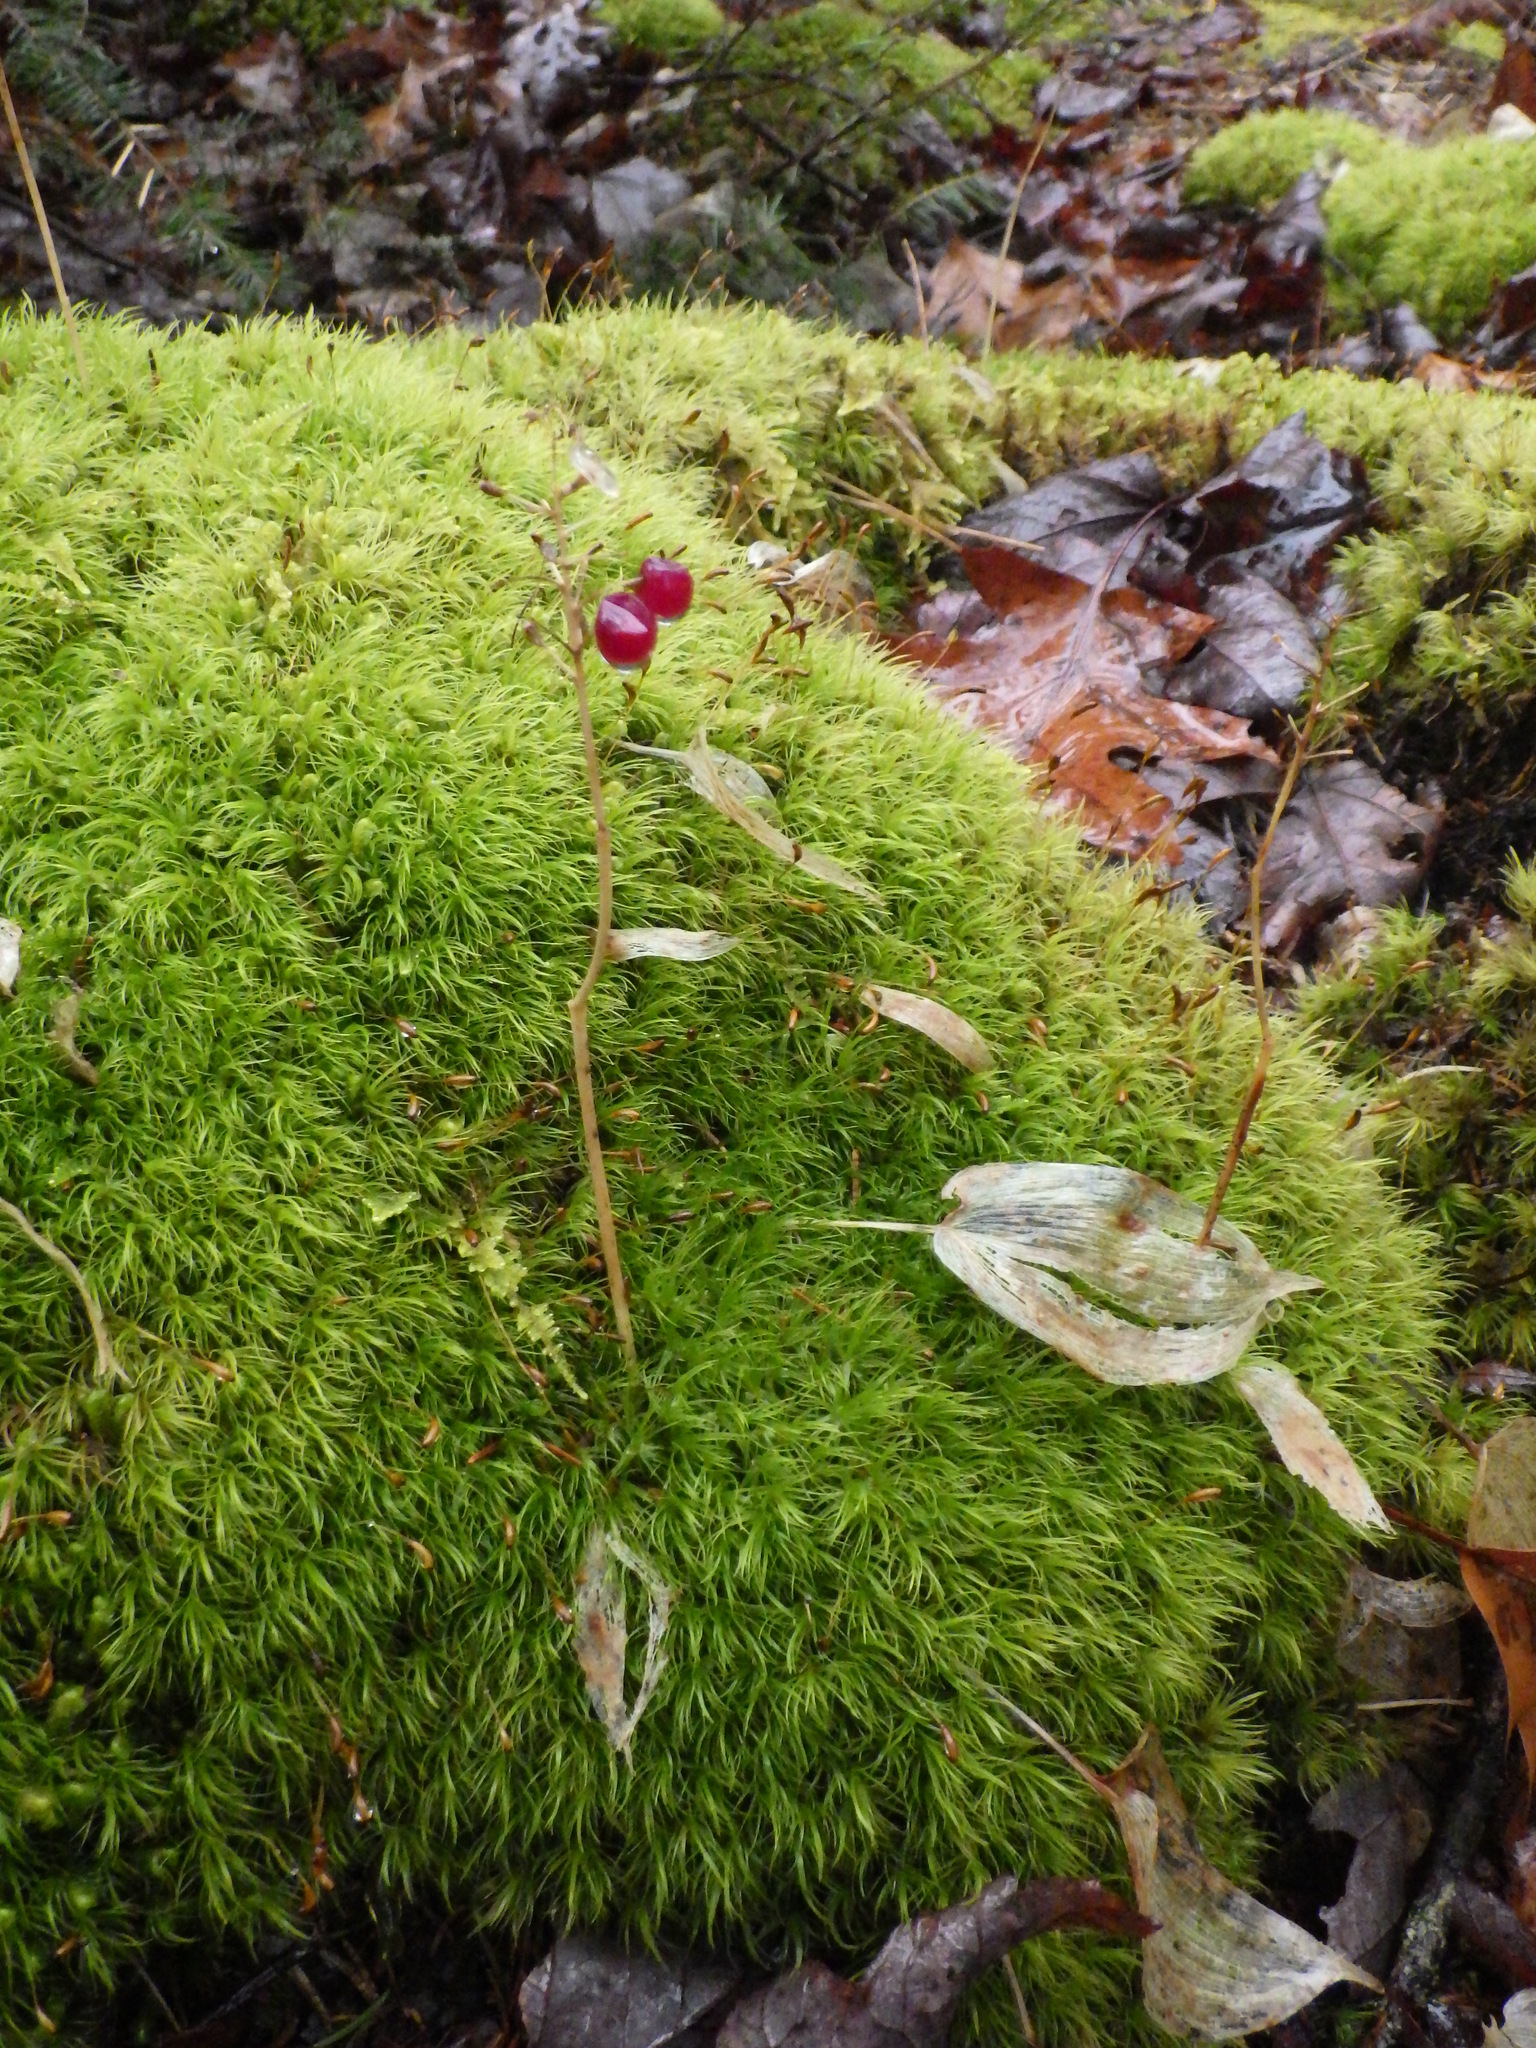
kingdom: Plantae
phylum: Tracheophyta
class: Liliopsida
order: Asparagales
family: Asparagaceae
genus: Maianthemum
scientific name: Maianthemum canadense
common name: False lily-of-the-valley
